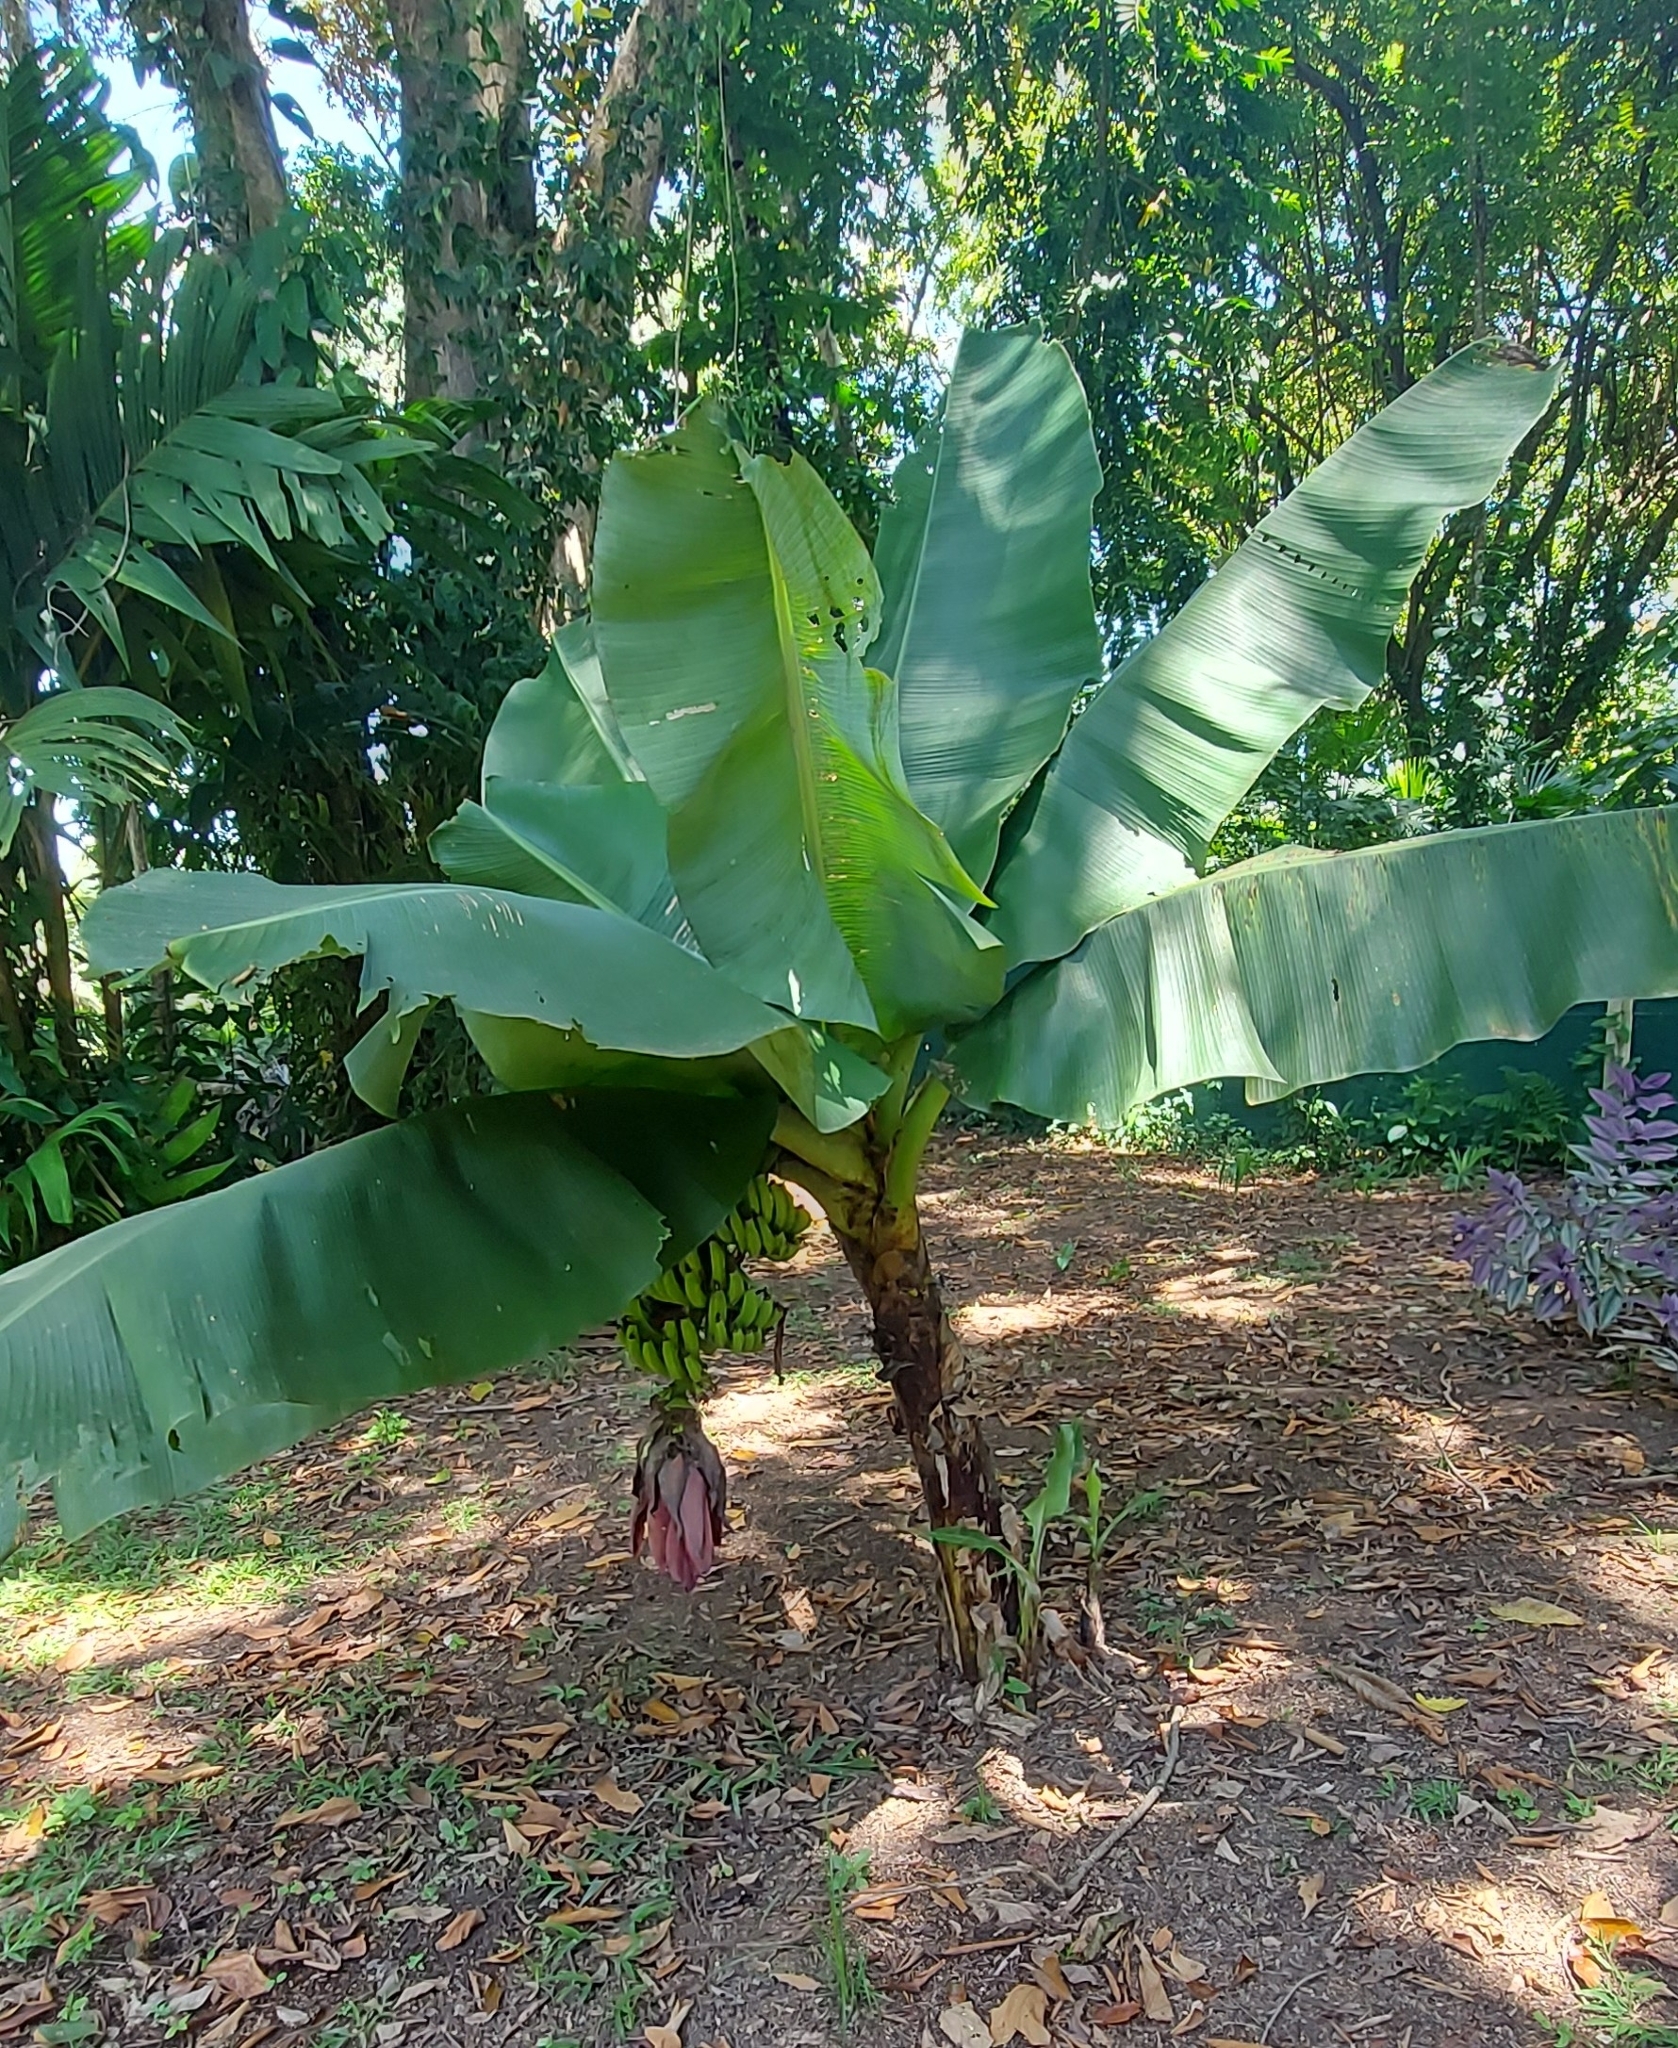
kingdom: Plantae
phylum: Tracheophyta
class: Liliopsida
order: Zingiberales
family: Musaceae
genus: Musa
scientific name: Musa acuminata
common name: Edible banana
